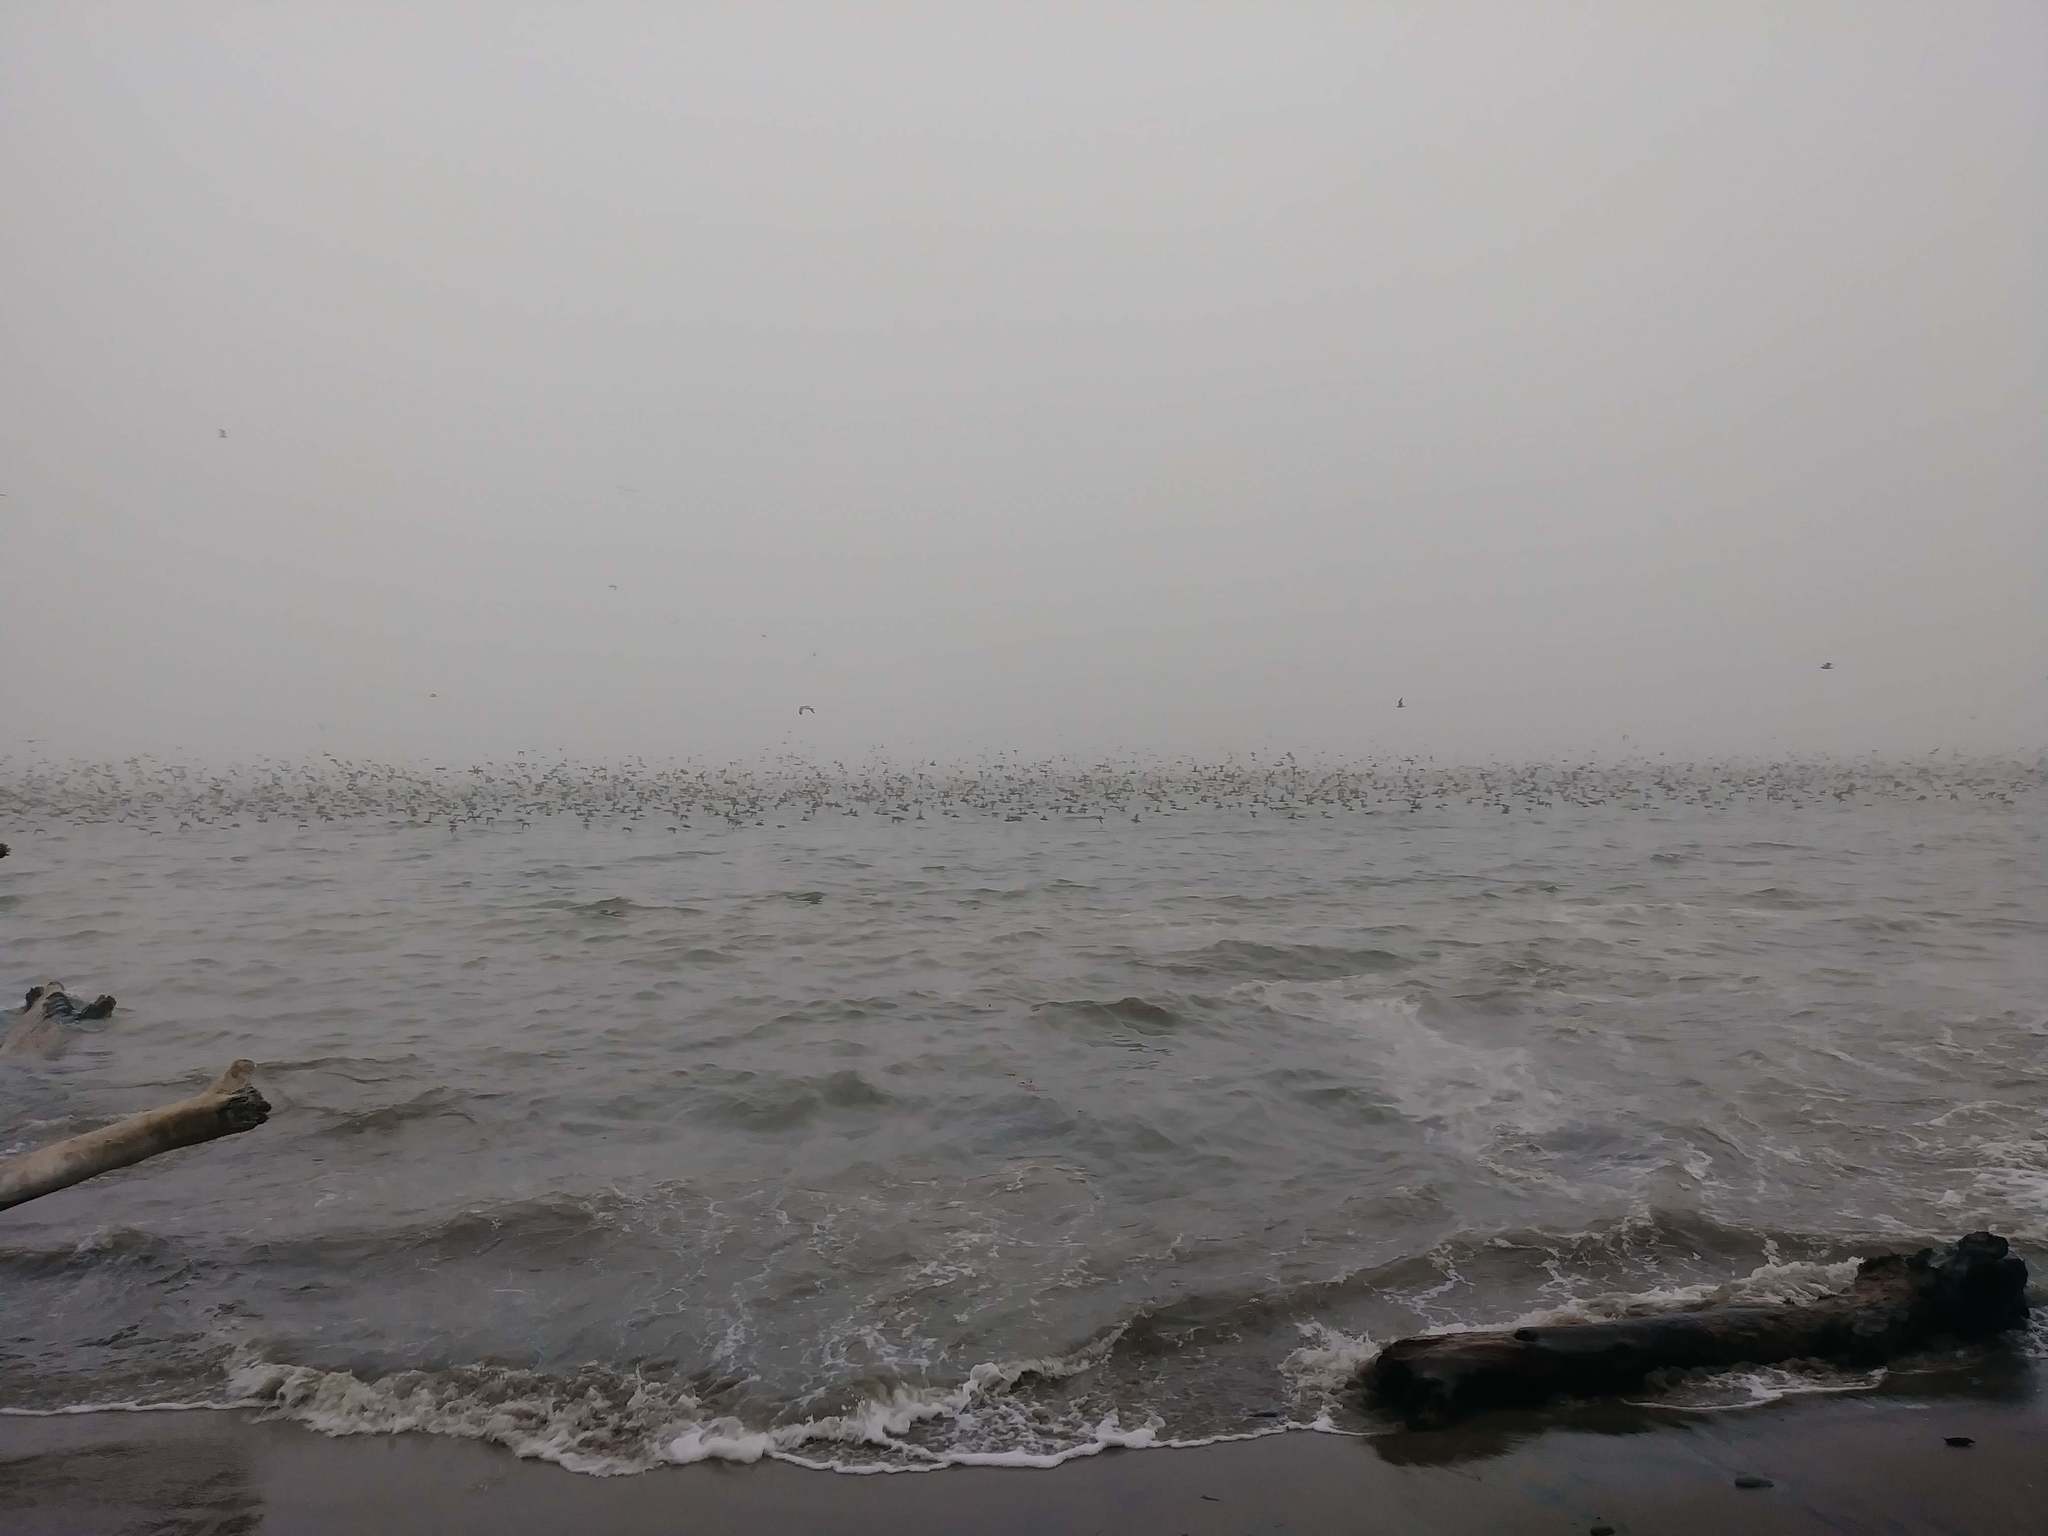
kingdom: Animalia
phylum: Chordata
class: Aves
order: Procellariiformes
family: Procellariidae
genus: Puffinus
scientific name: Puffinus griseus
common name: Sooty shearwater
